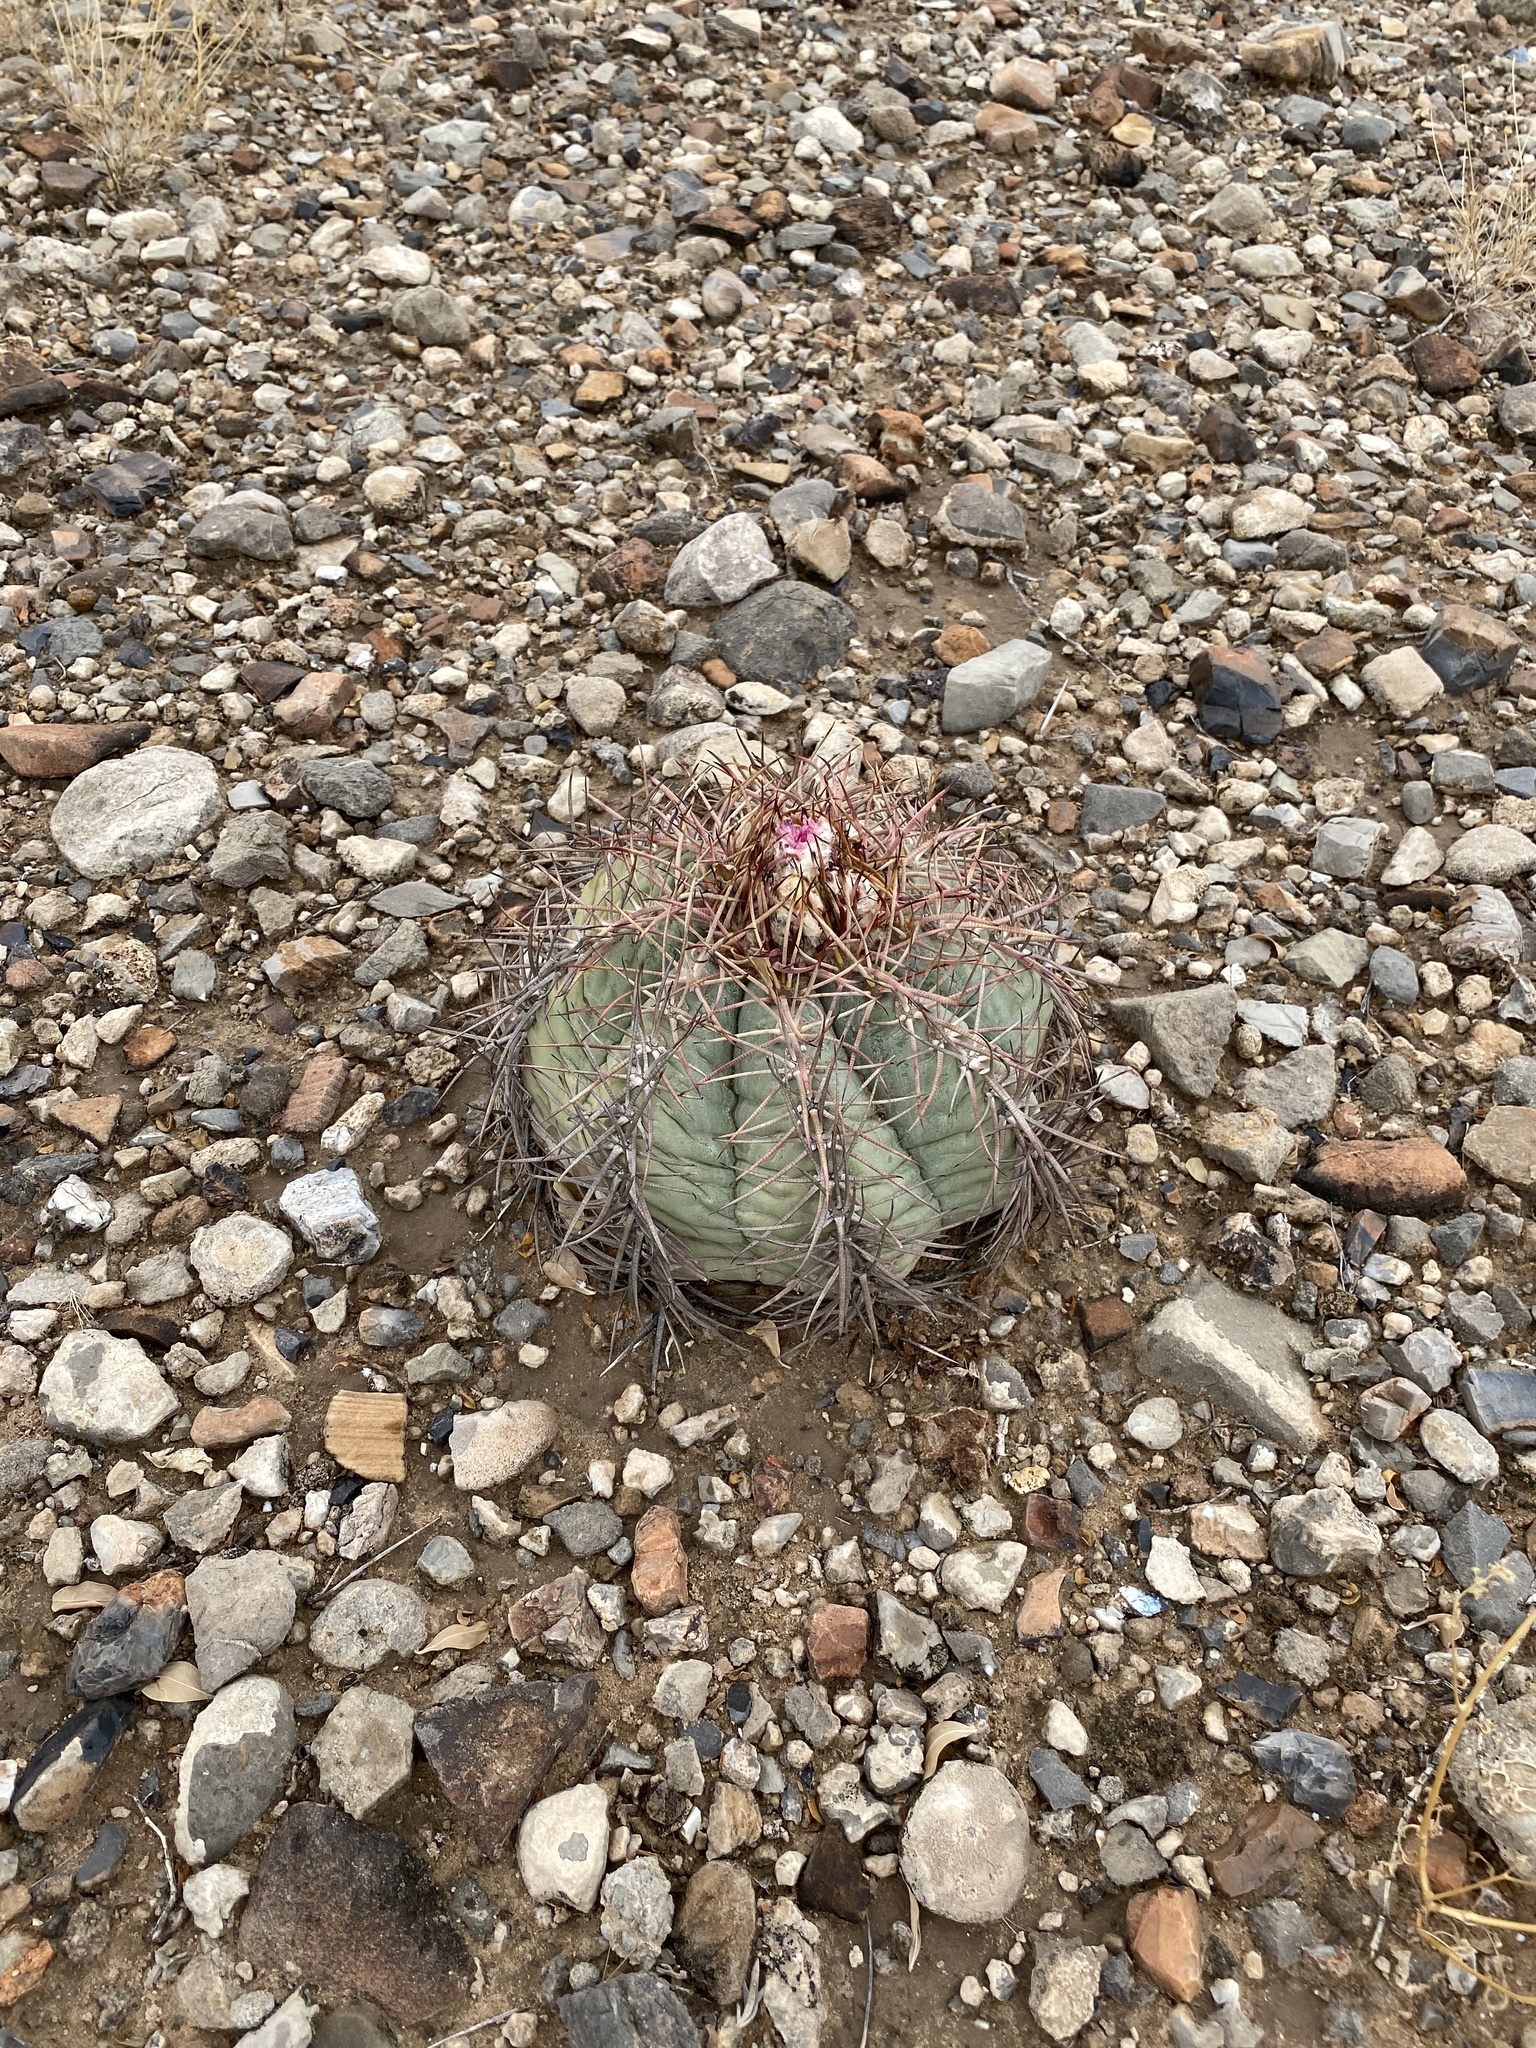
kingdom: Plantae
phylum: Tracheophyta
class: Magnoliopsida
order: Caryophyllales
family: Cactaceae
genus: Echinocactus
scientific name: Echinocactus horizonthalonius
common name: Devilshead
